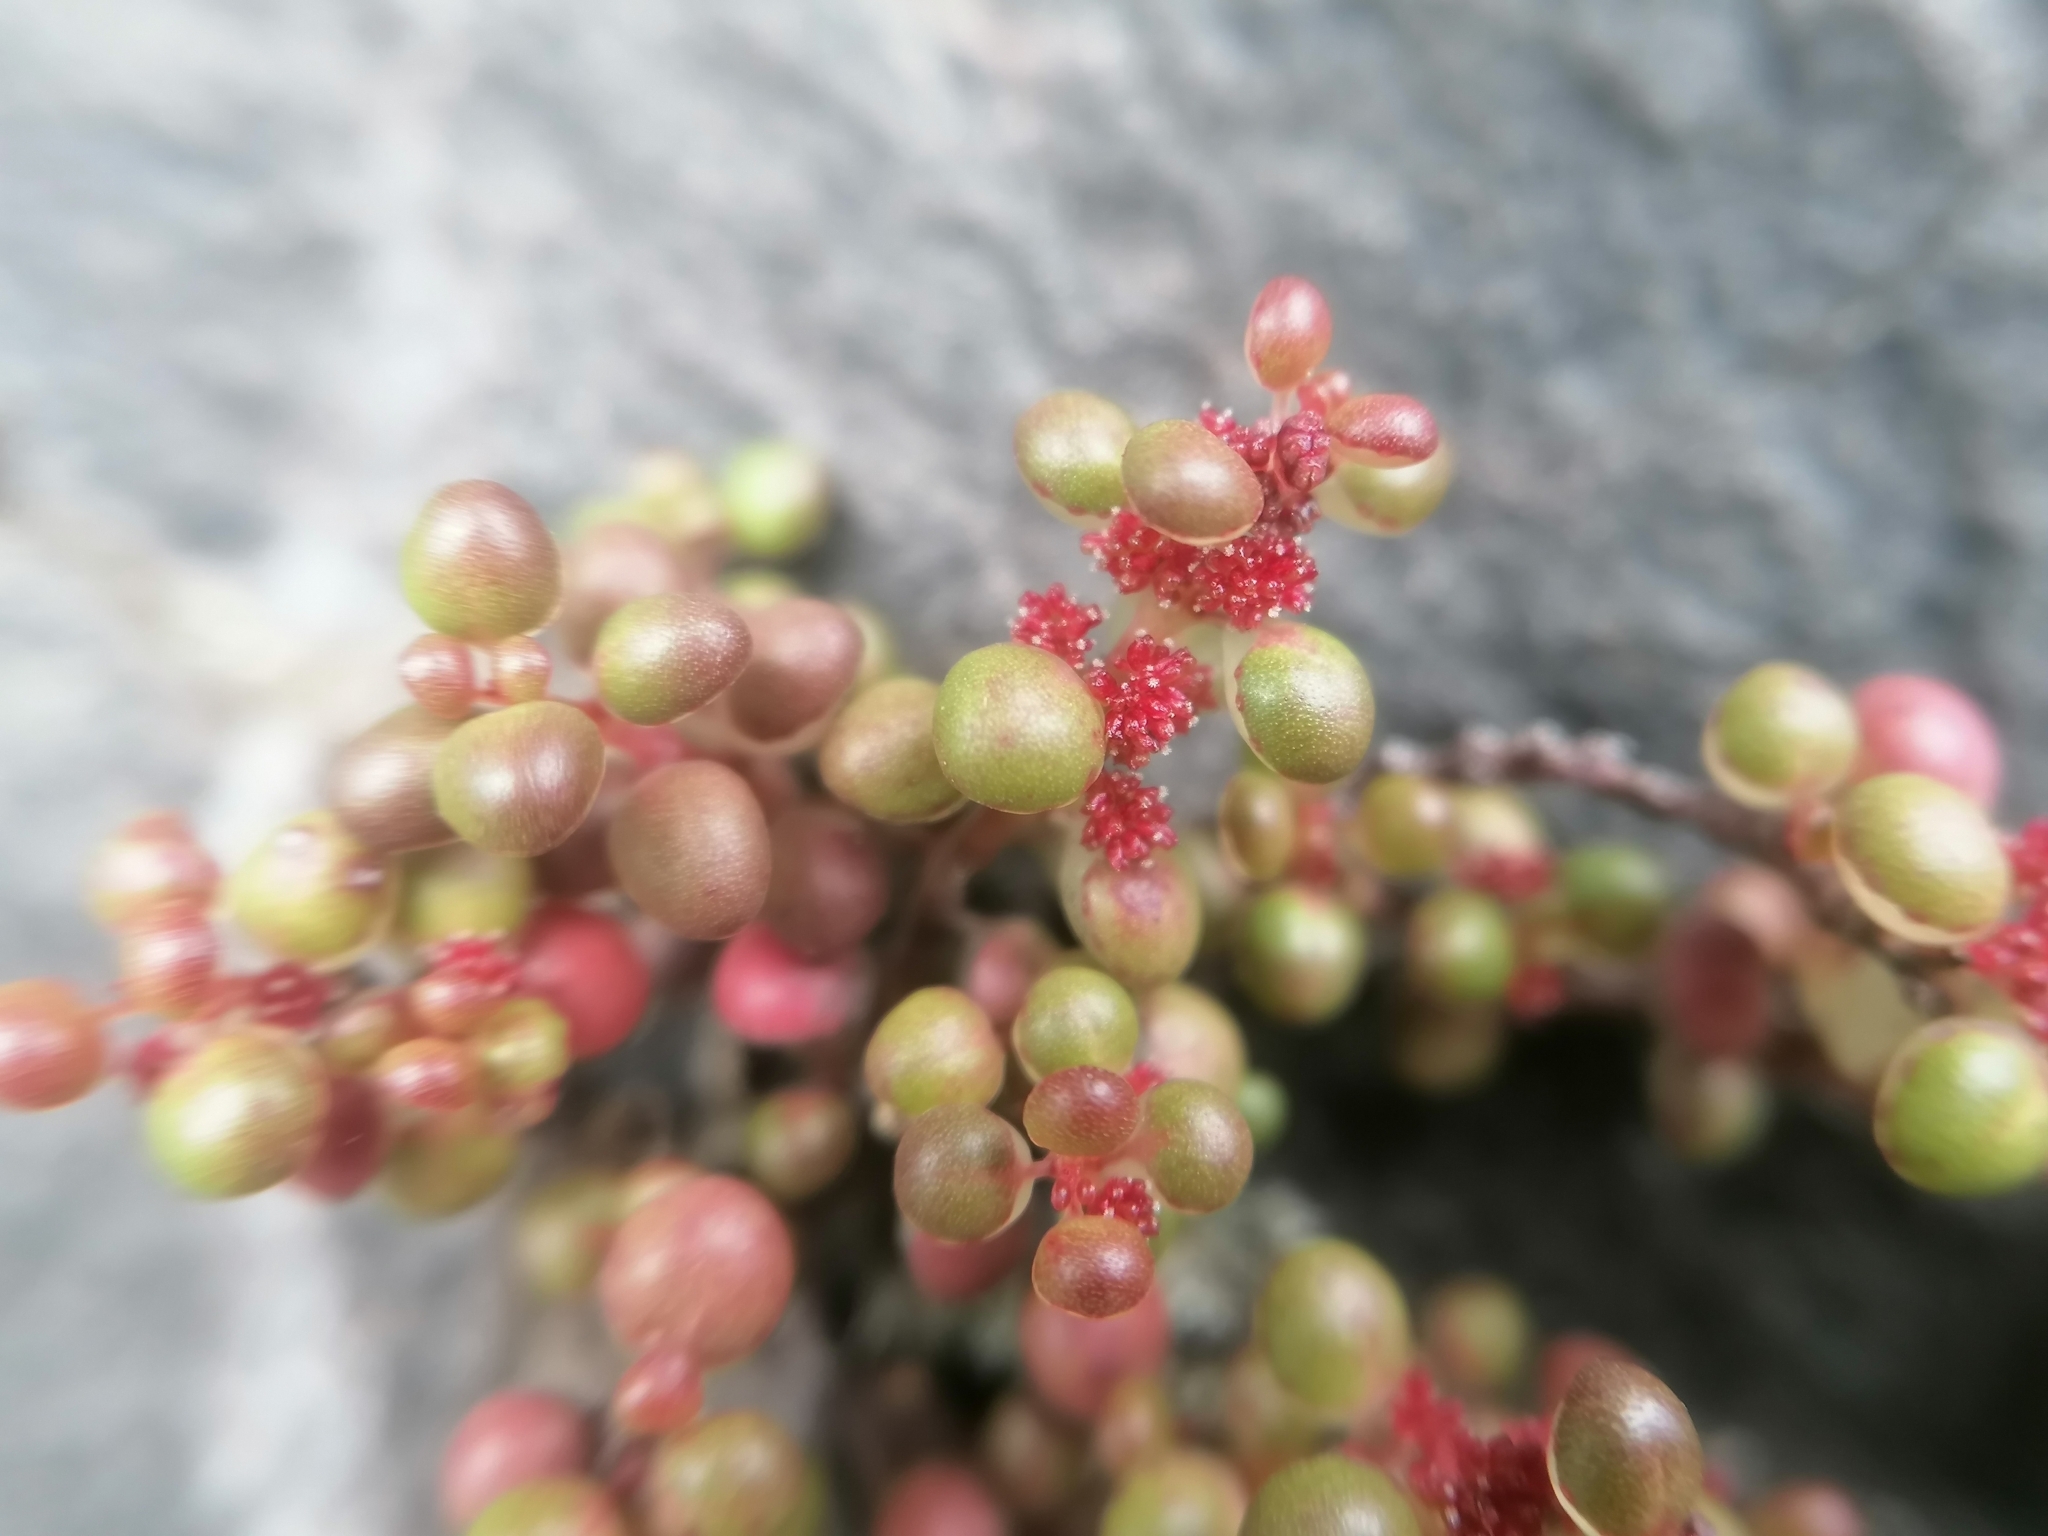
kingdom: Plantae
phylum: Tracheophyta
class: Magnoliopsida
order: Rosales
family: Urticaceae
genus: Pilea
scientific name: Pilea serpyllacea
